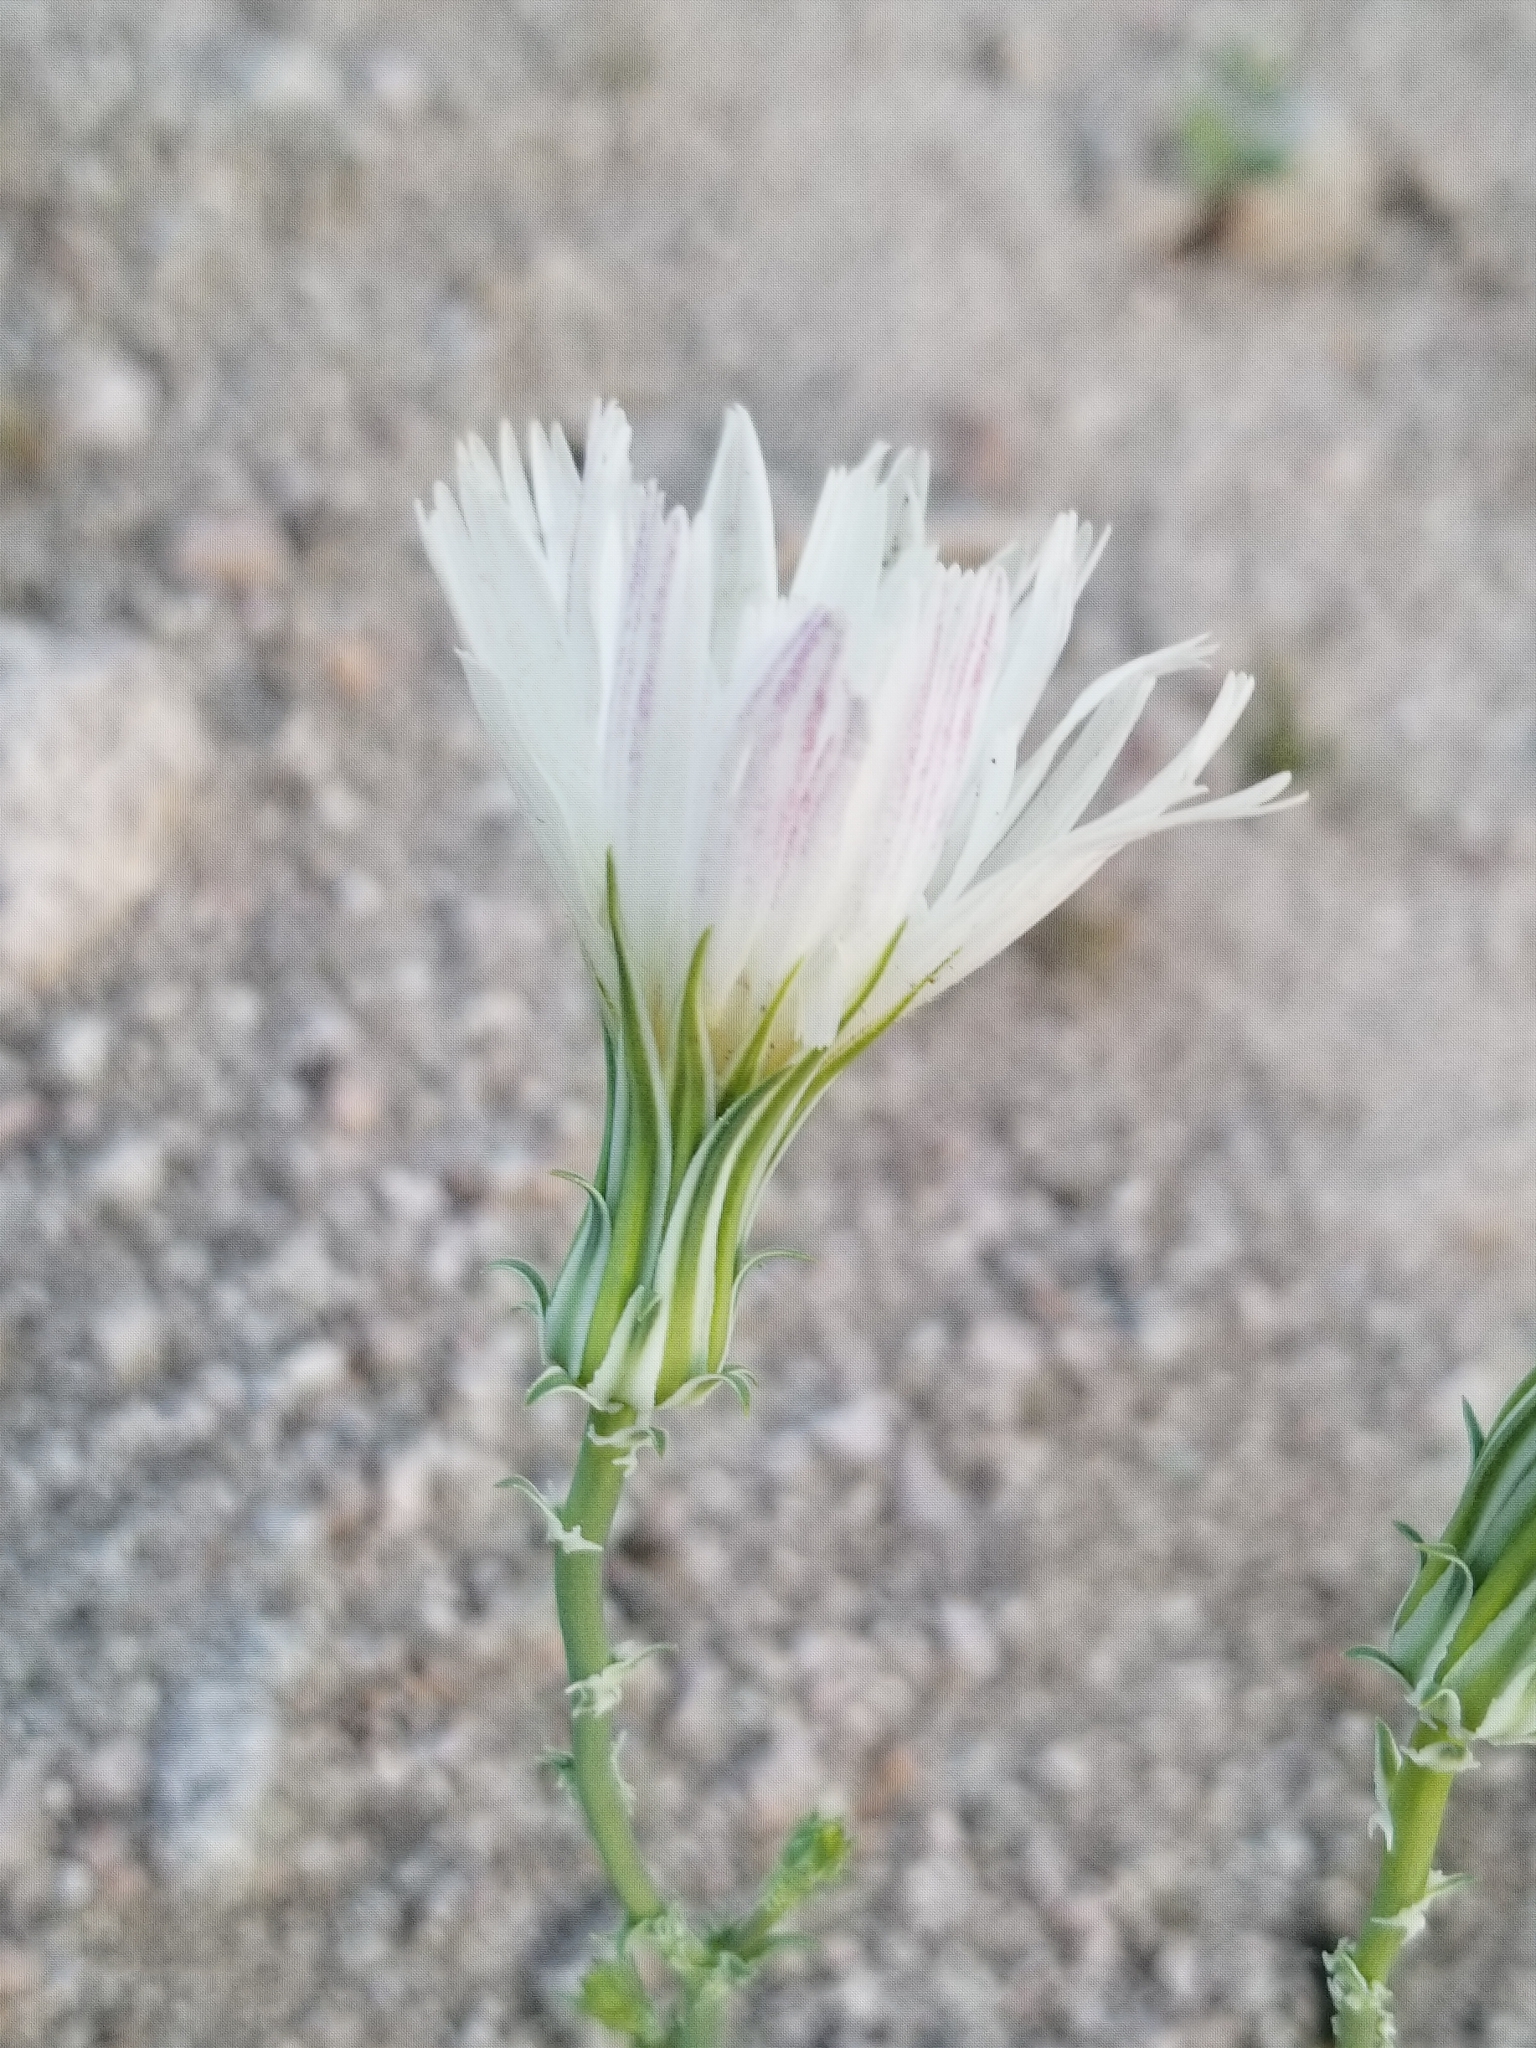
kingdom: Plantae
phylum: Tracheophyta
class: Magnoliopsida
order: Asterales
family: Asteraceae
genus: Rafinesquia
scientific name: Rafinesquia neomexicana
